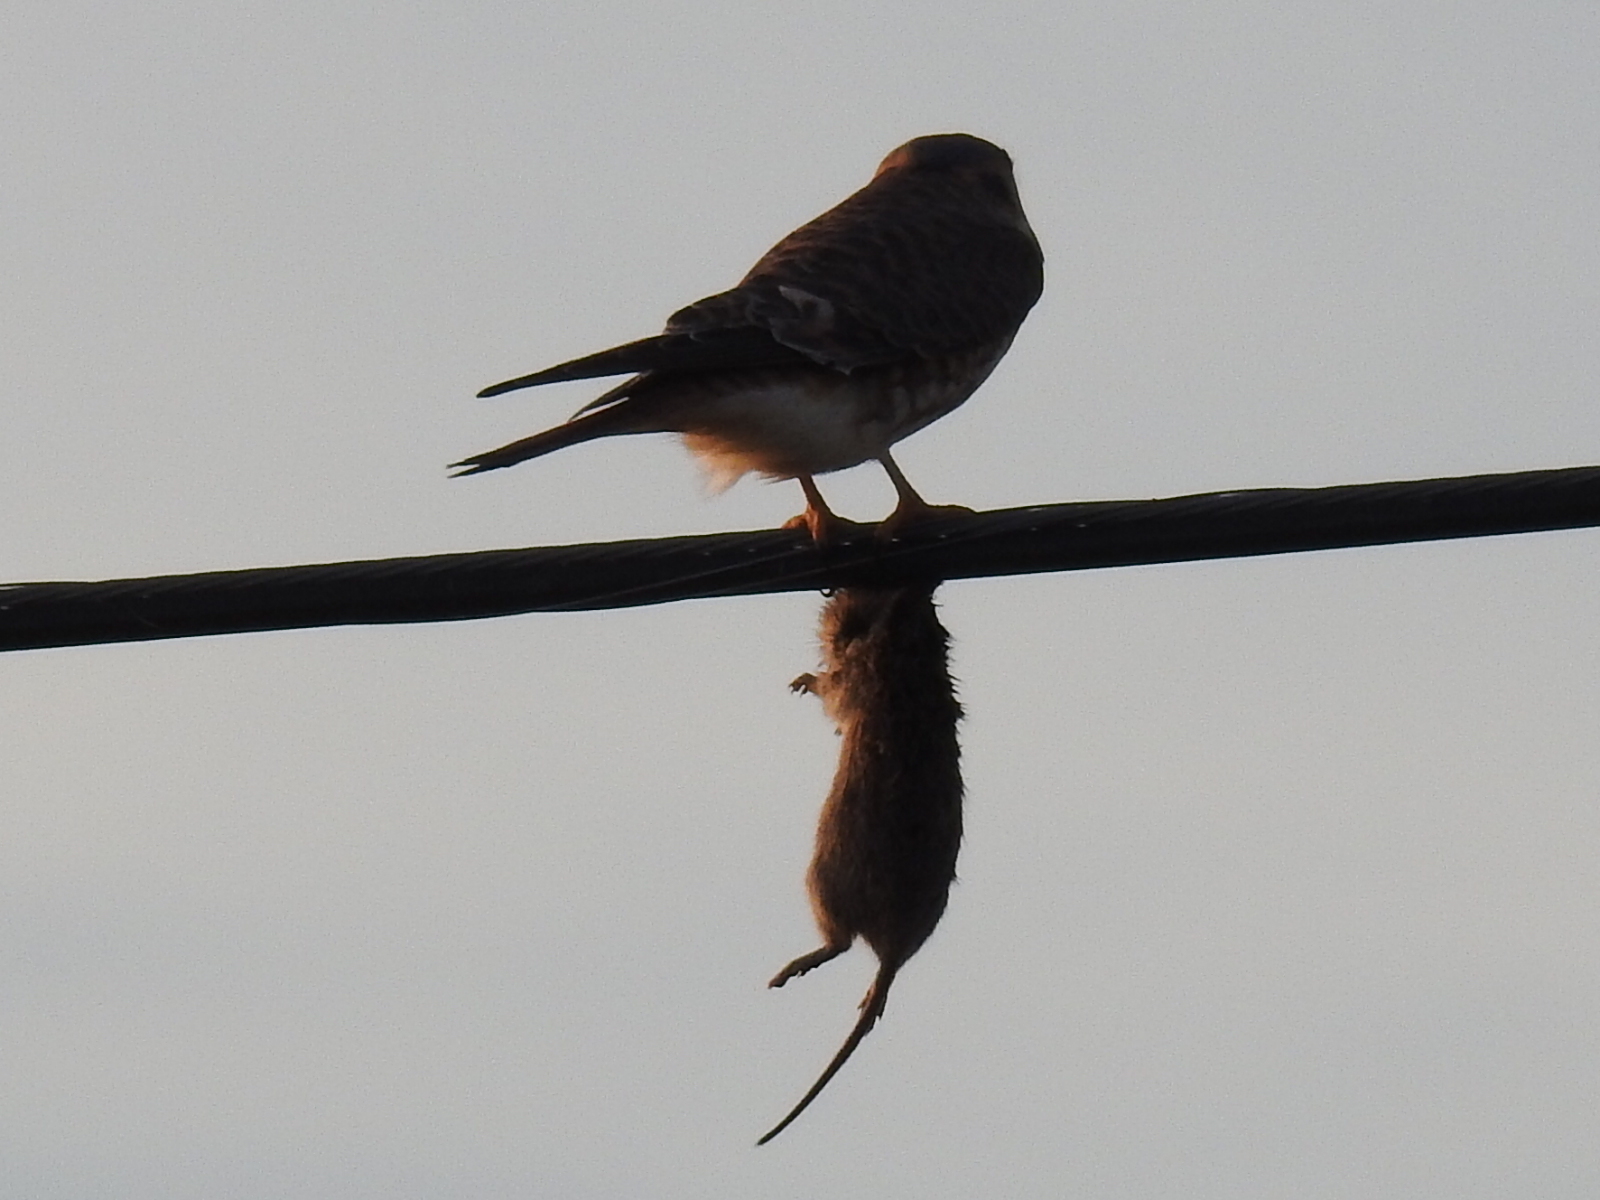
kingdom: Animalia
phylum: Chordata
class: Aves
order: Falconiformes
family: Falconidae
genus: Falco
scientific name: Falco sparverius
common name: American kestrel
